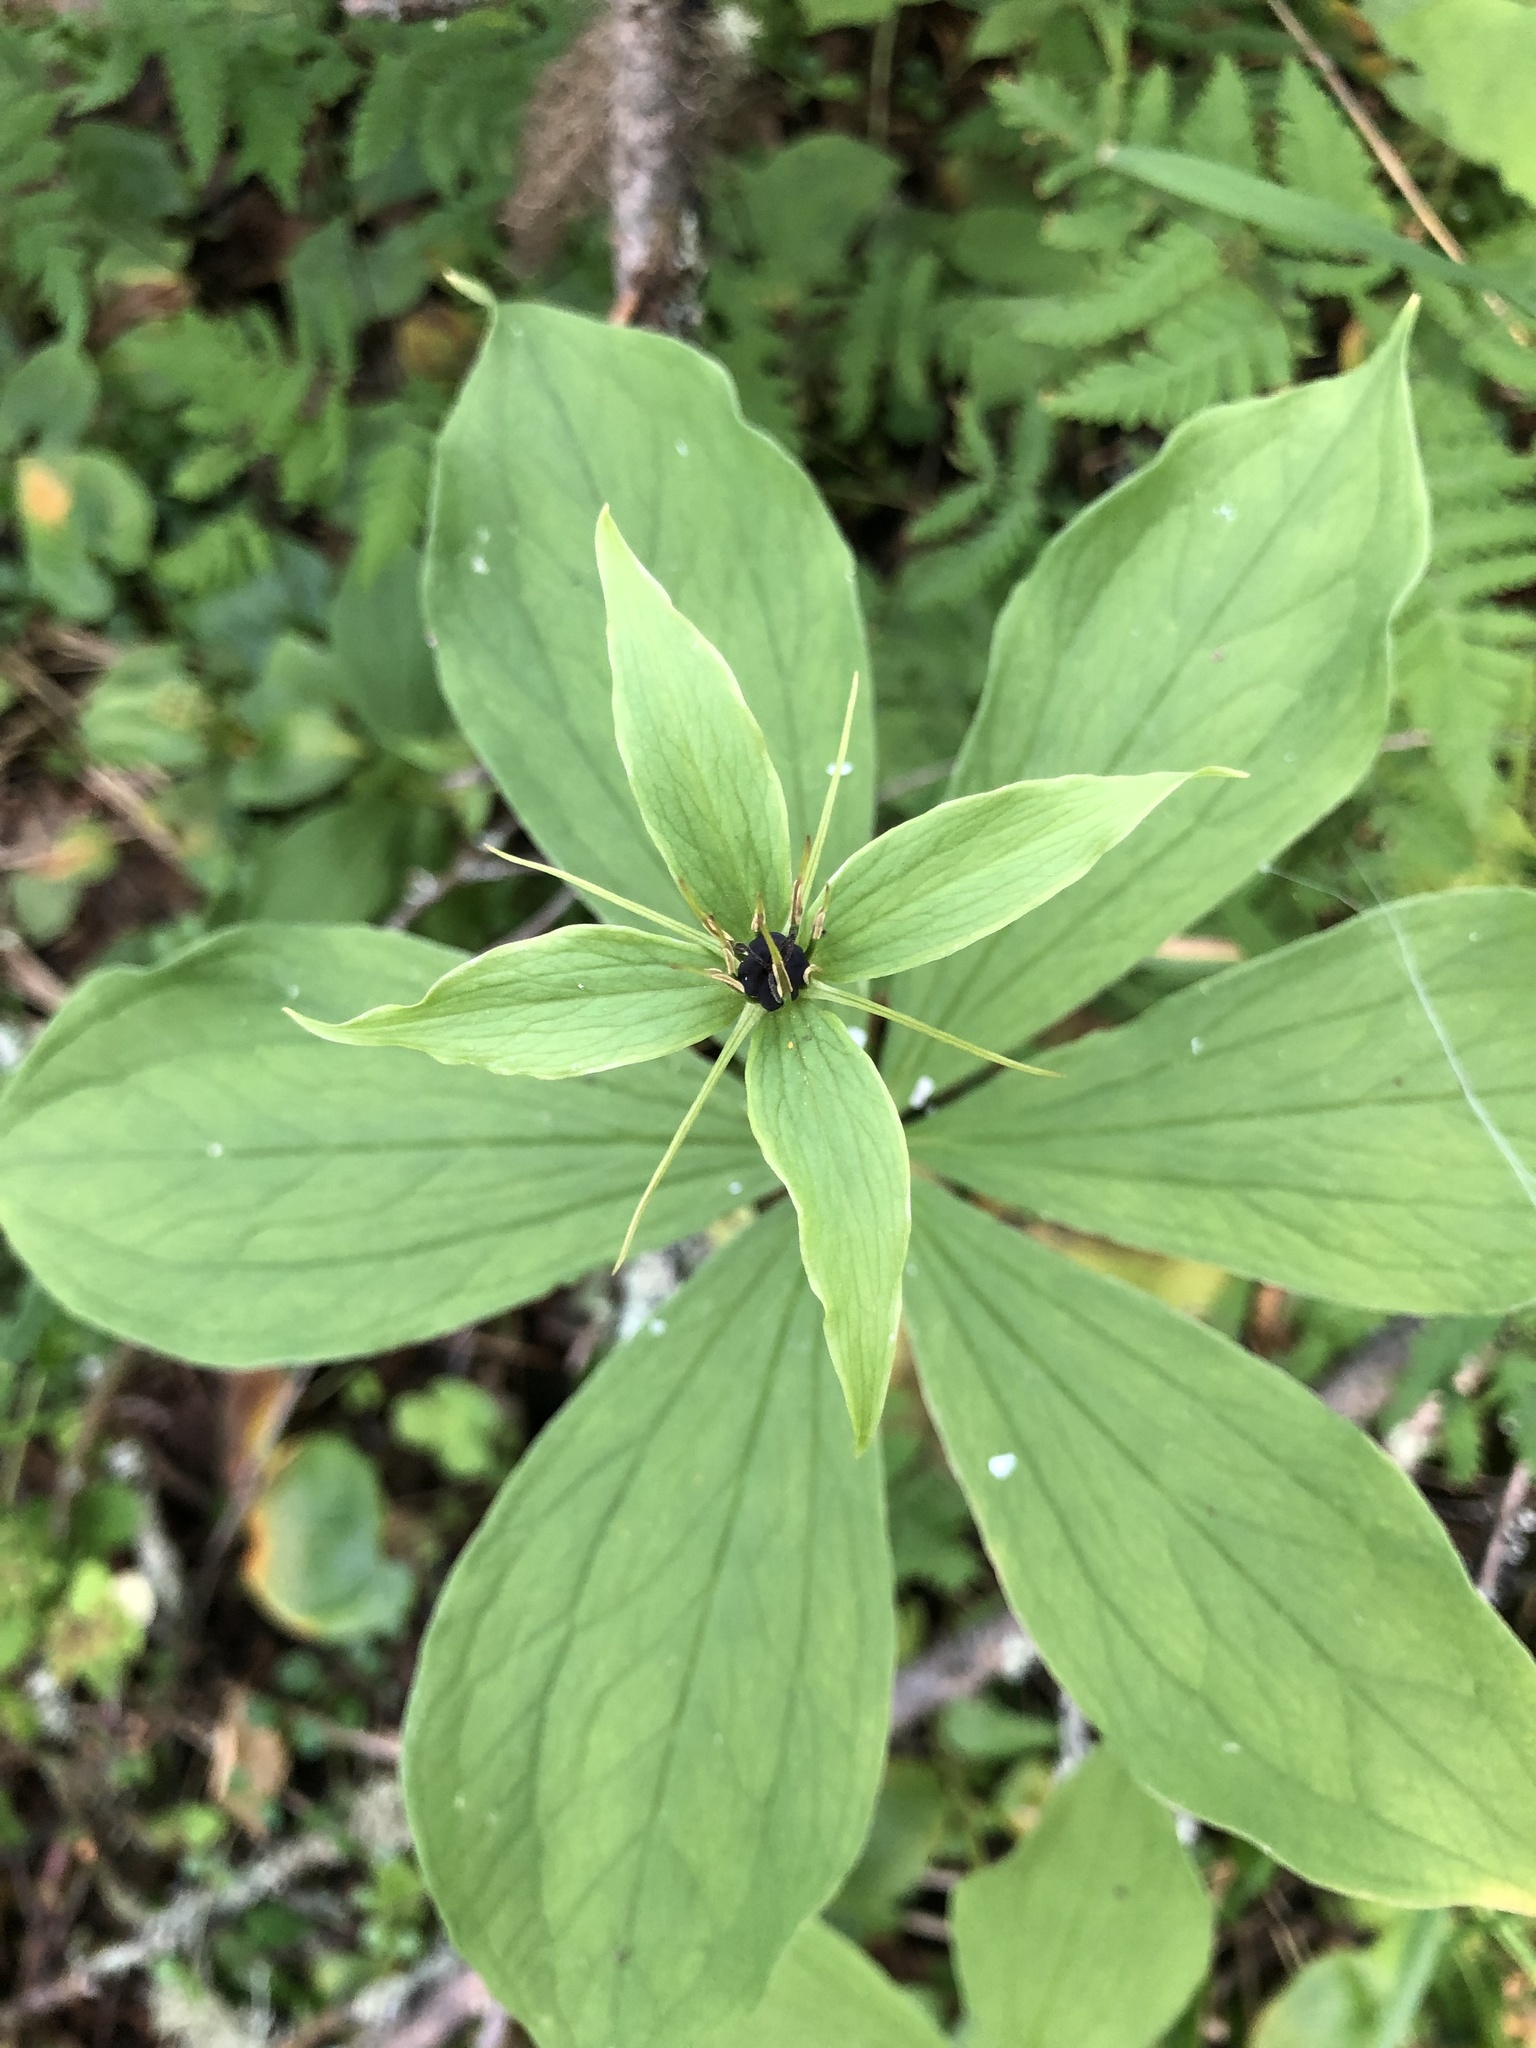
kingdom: Plantae
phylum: Tracheophyta
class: Liliopsida
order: Liliales
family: Melanthiaceae
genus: Paris
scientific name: Paris quadrifolia
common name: Herb-paris
